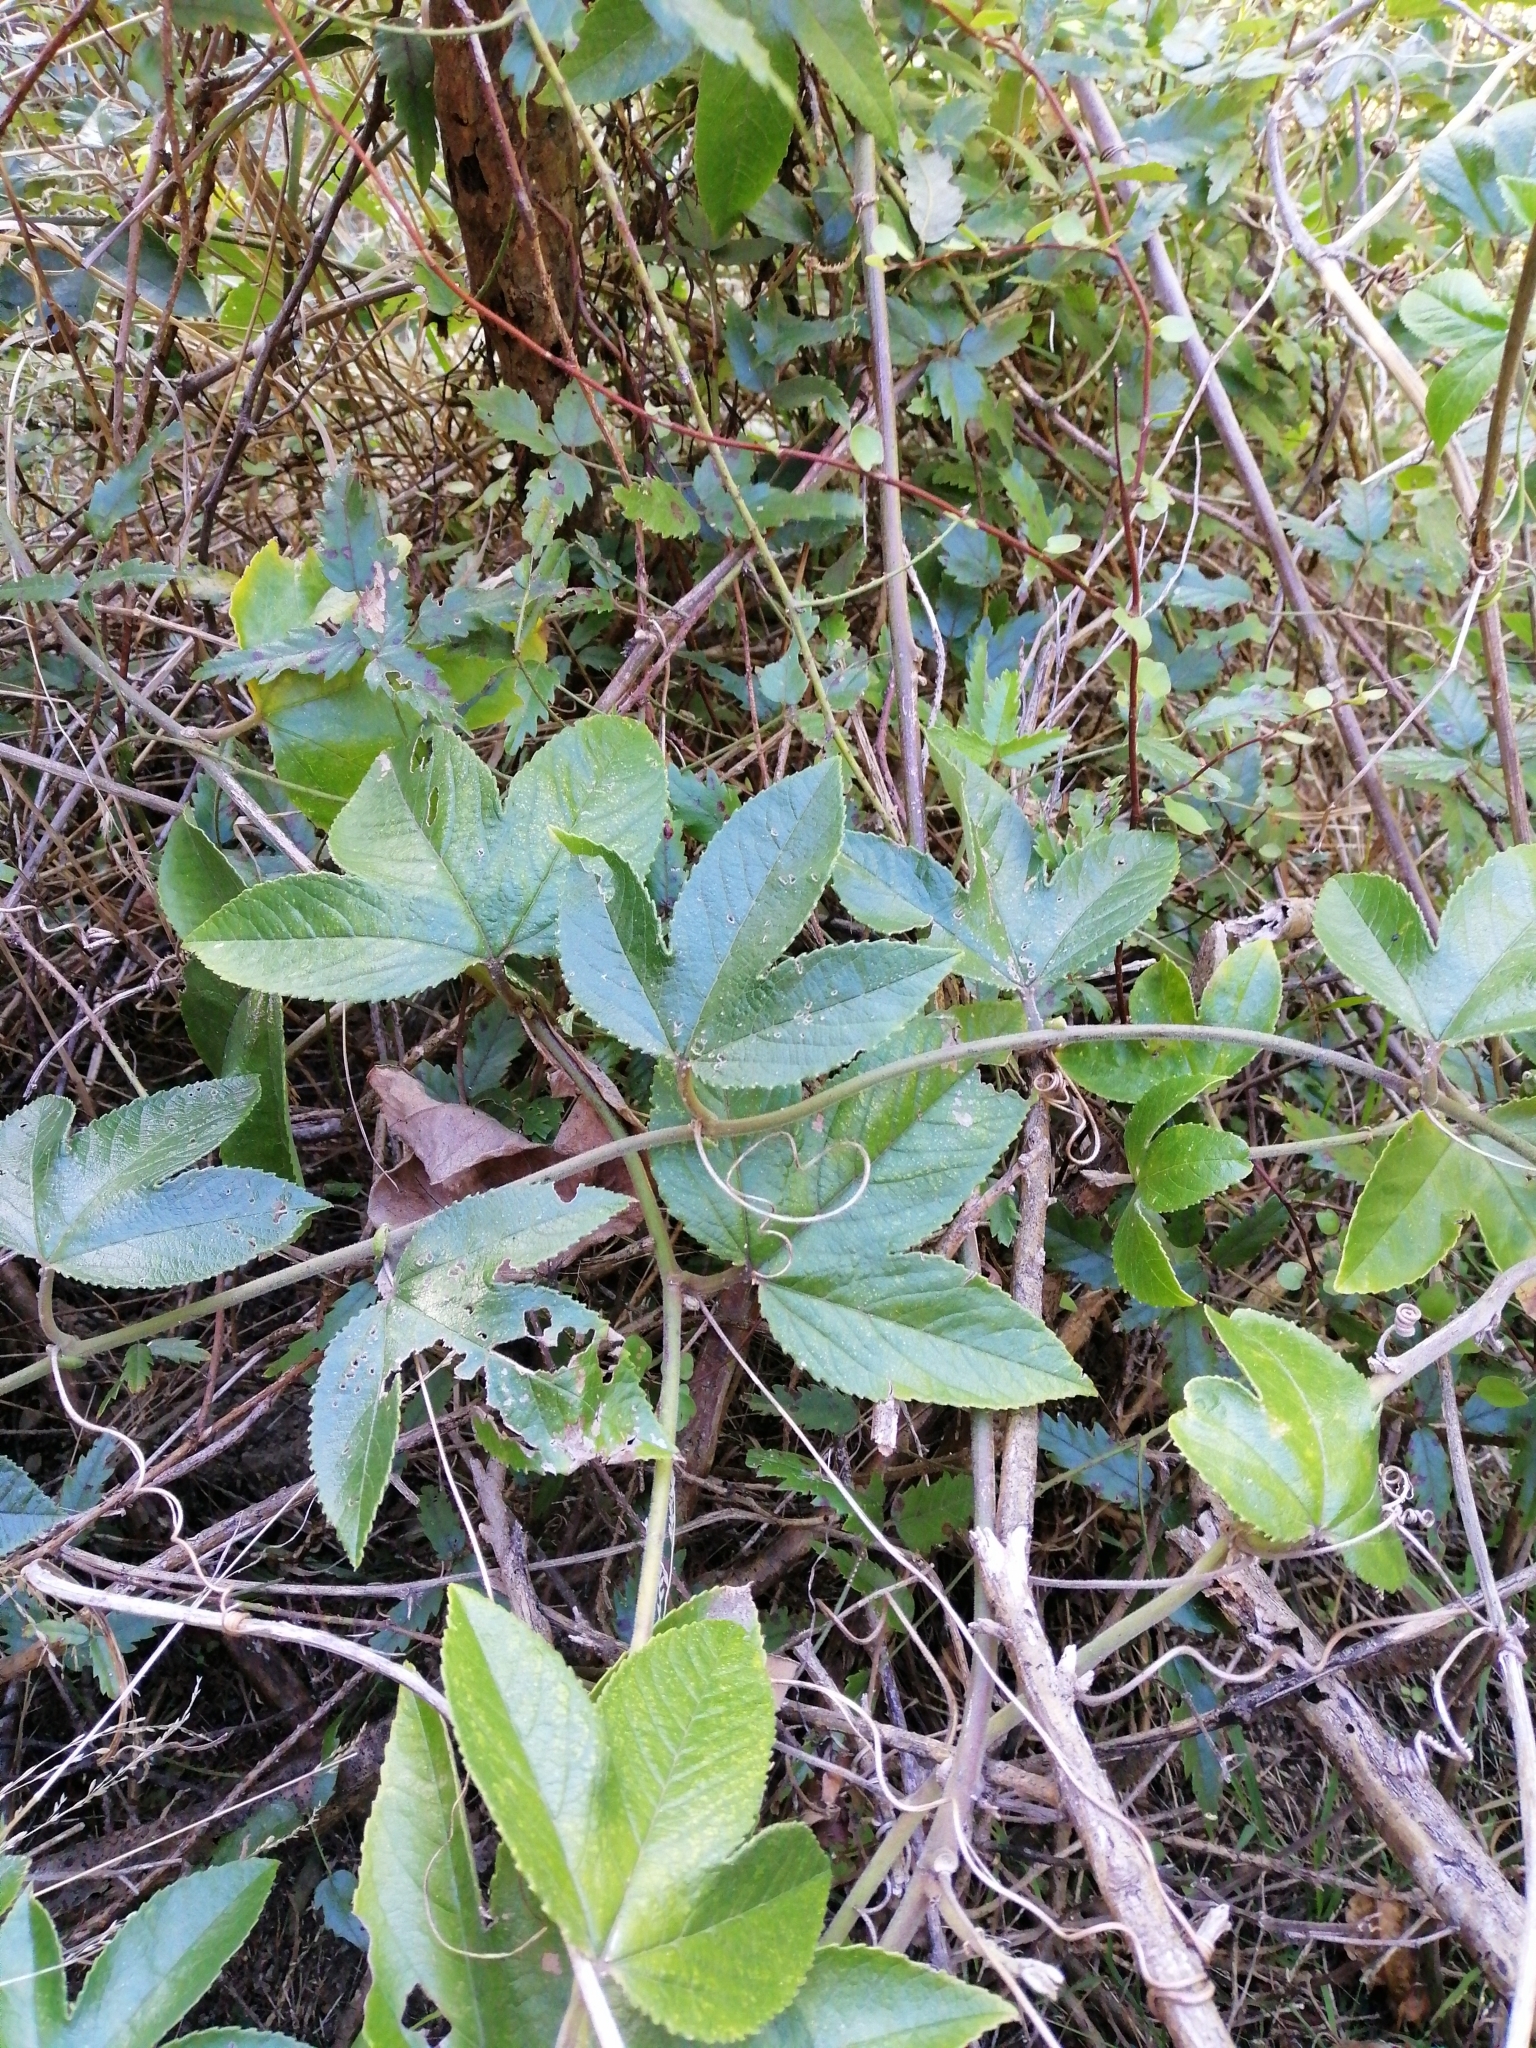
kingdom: Plantae
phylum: Tracheophyta
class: Magnoliopsida
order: Malpighiales
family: Passifloraceae
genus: Passiflora
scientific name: Passiflora tripartita
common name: Banana poka
